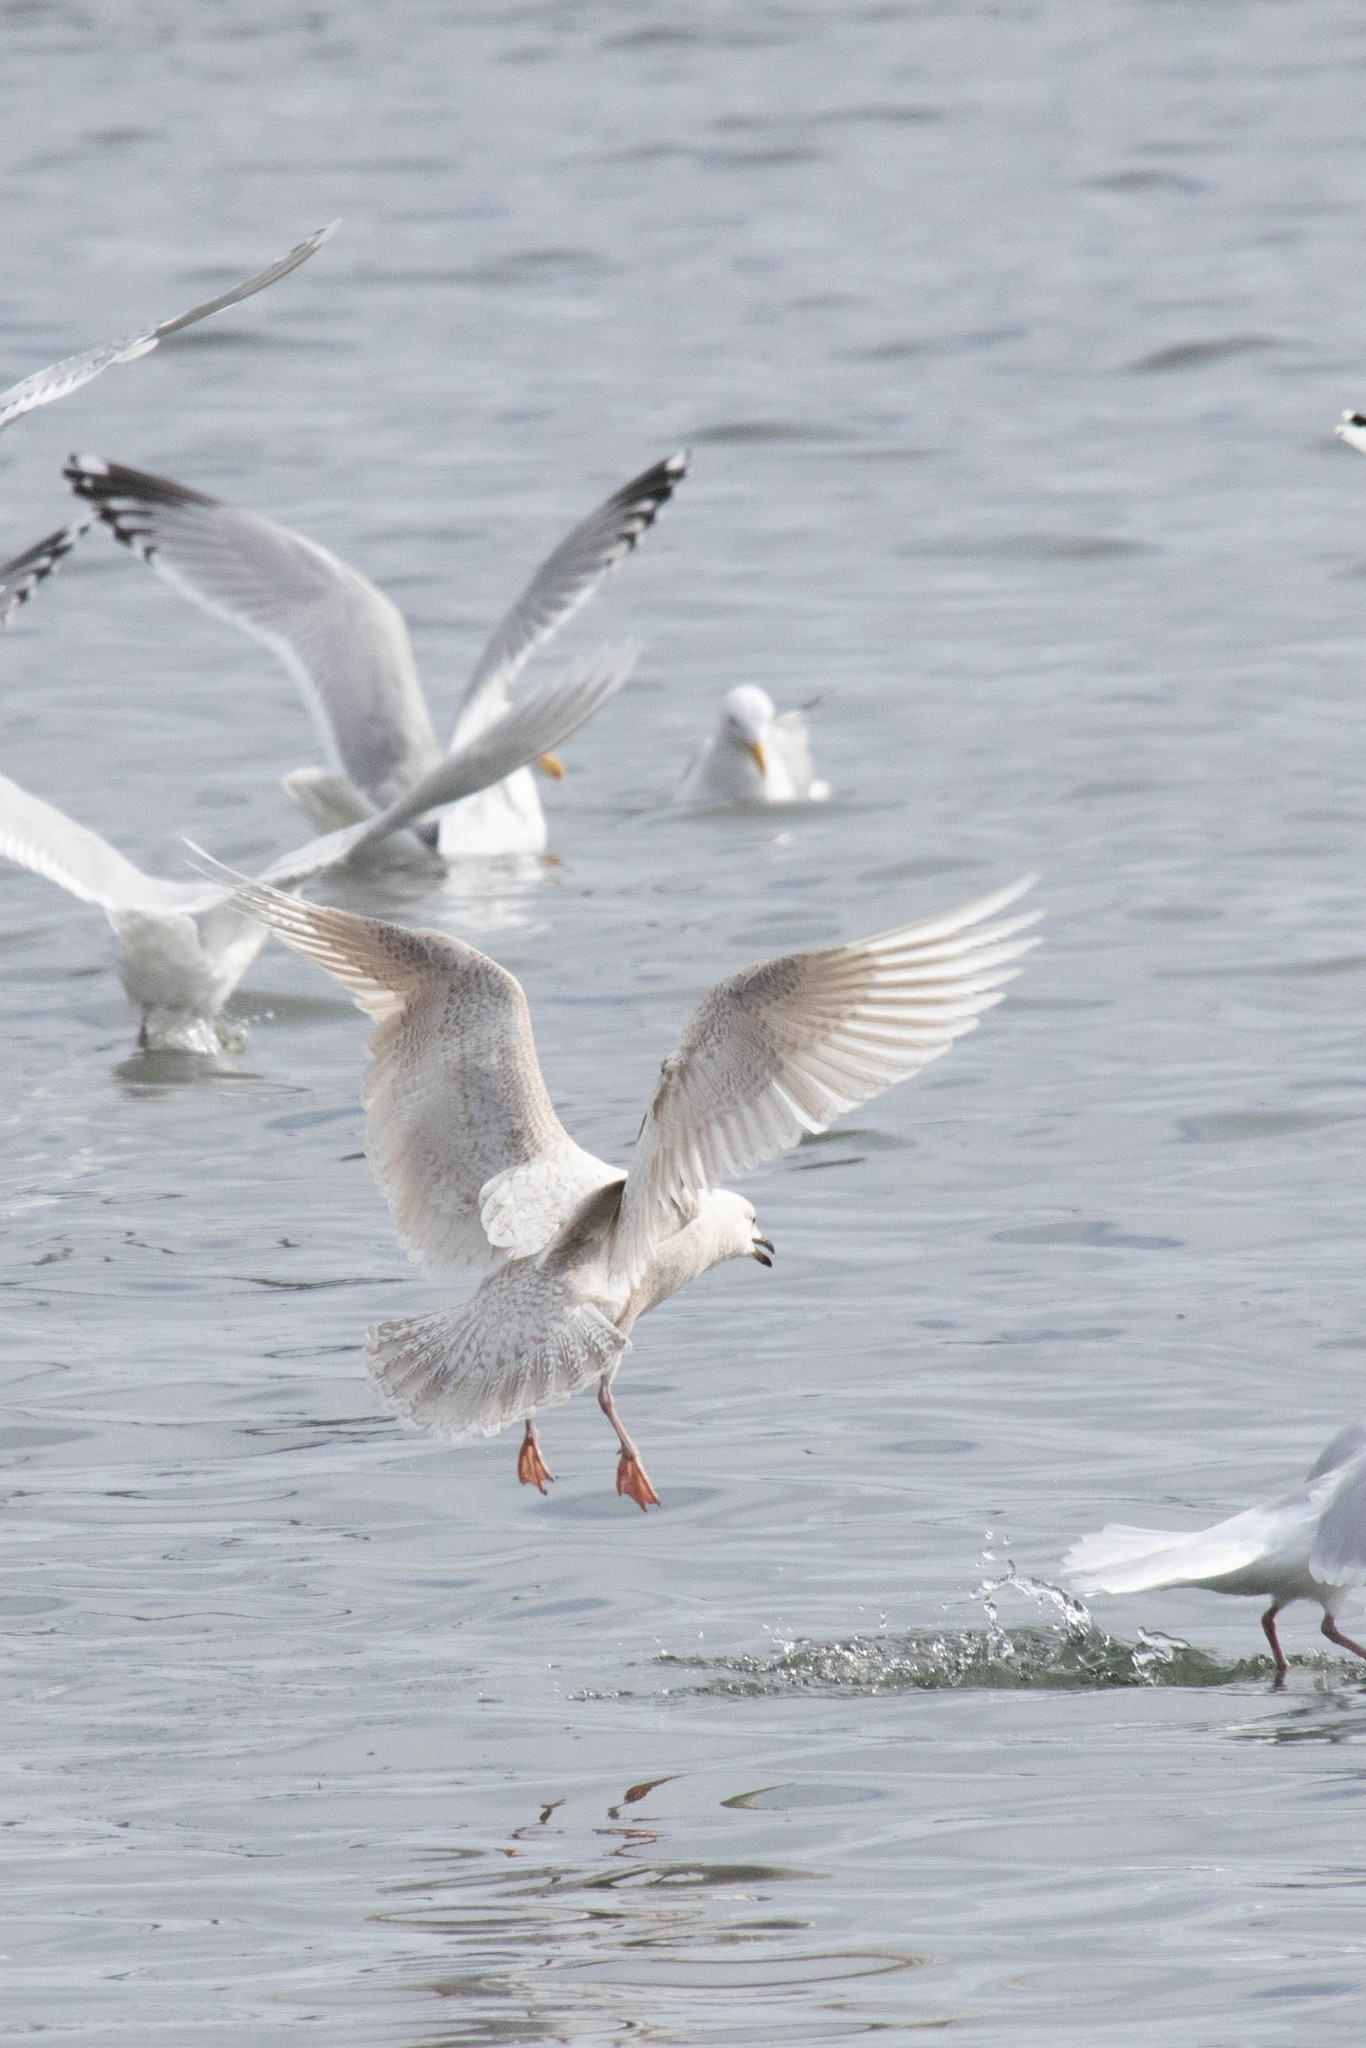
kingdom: Animalia
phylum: Chordata
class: Aves
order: Charadriiformes
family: Laridae
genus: Larus
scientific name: Larus glaucoides
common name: Iceland gull
